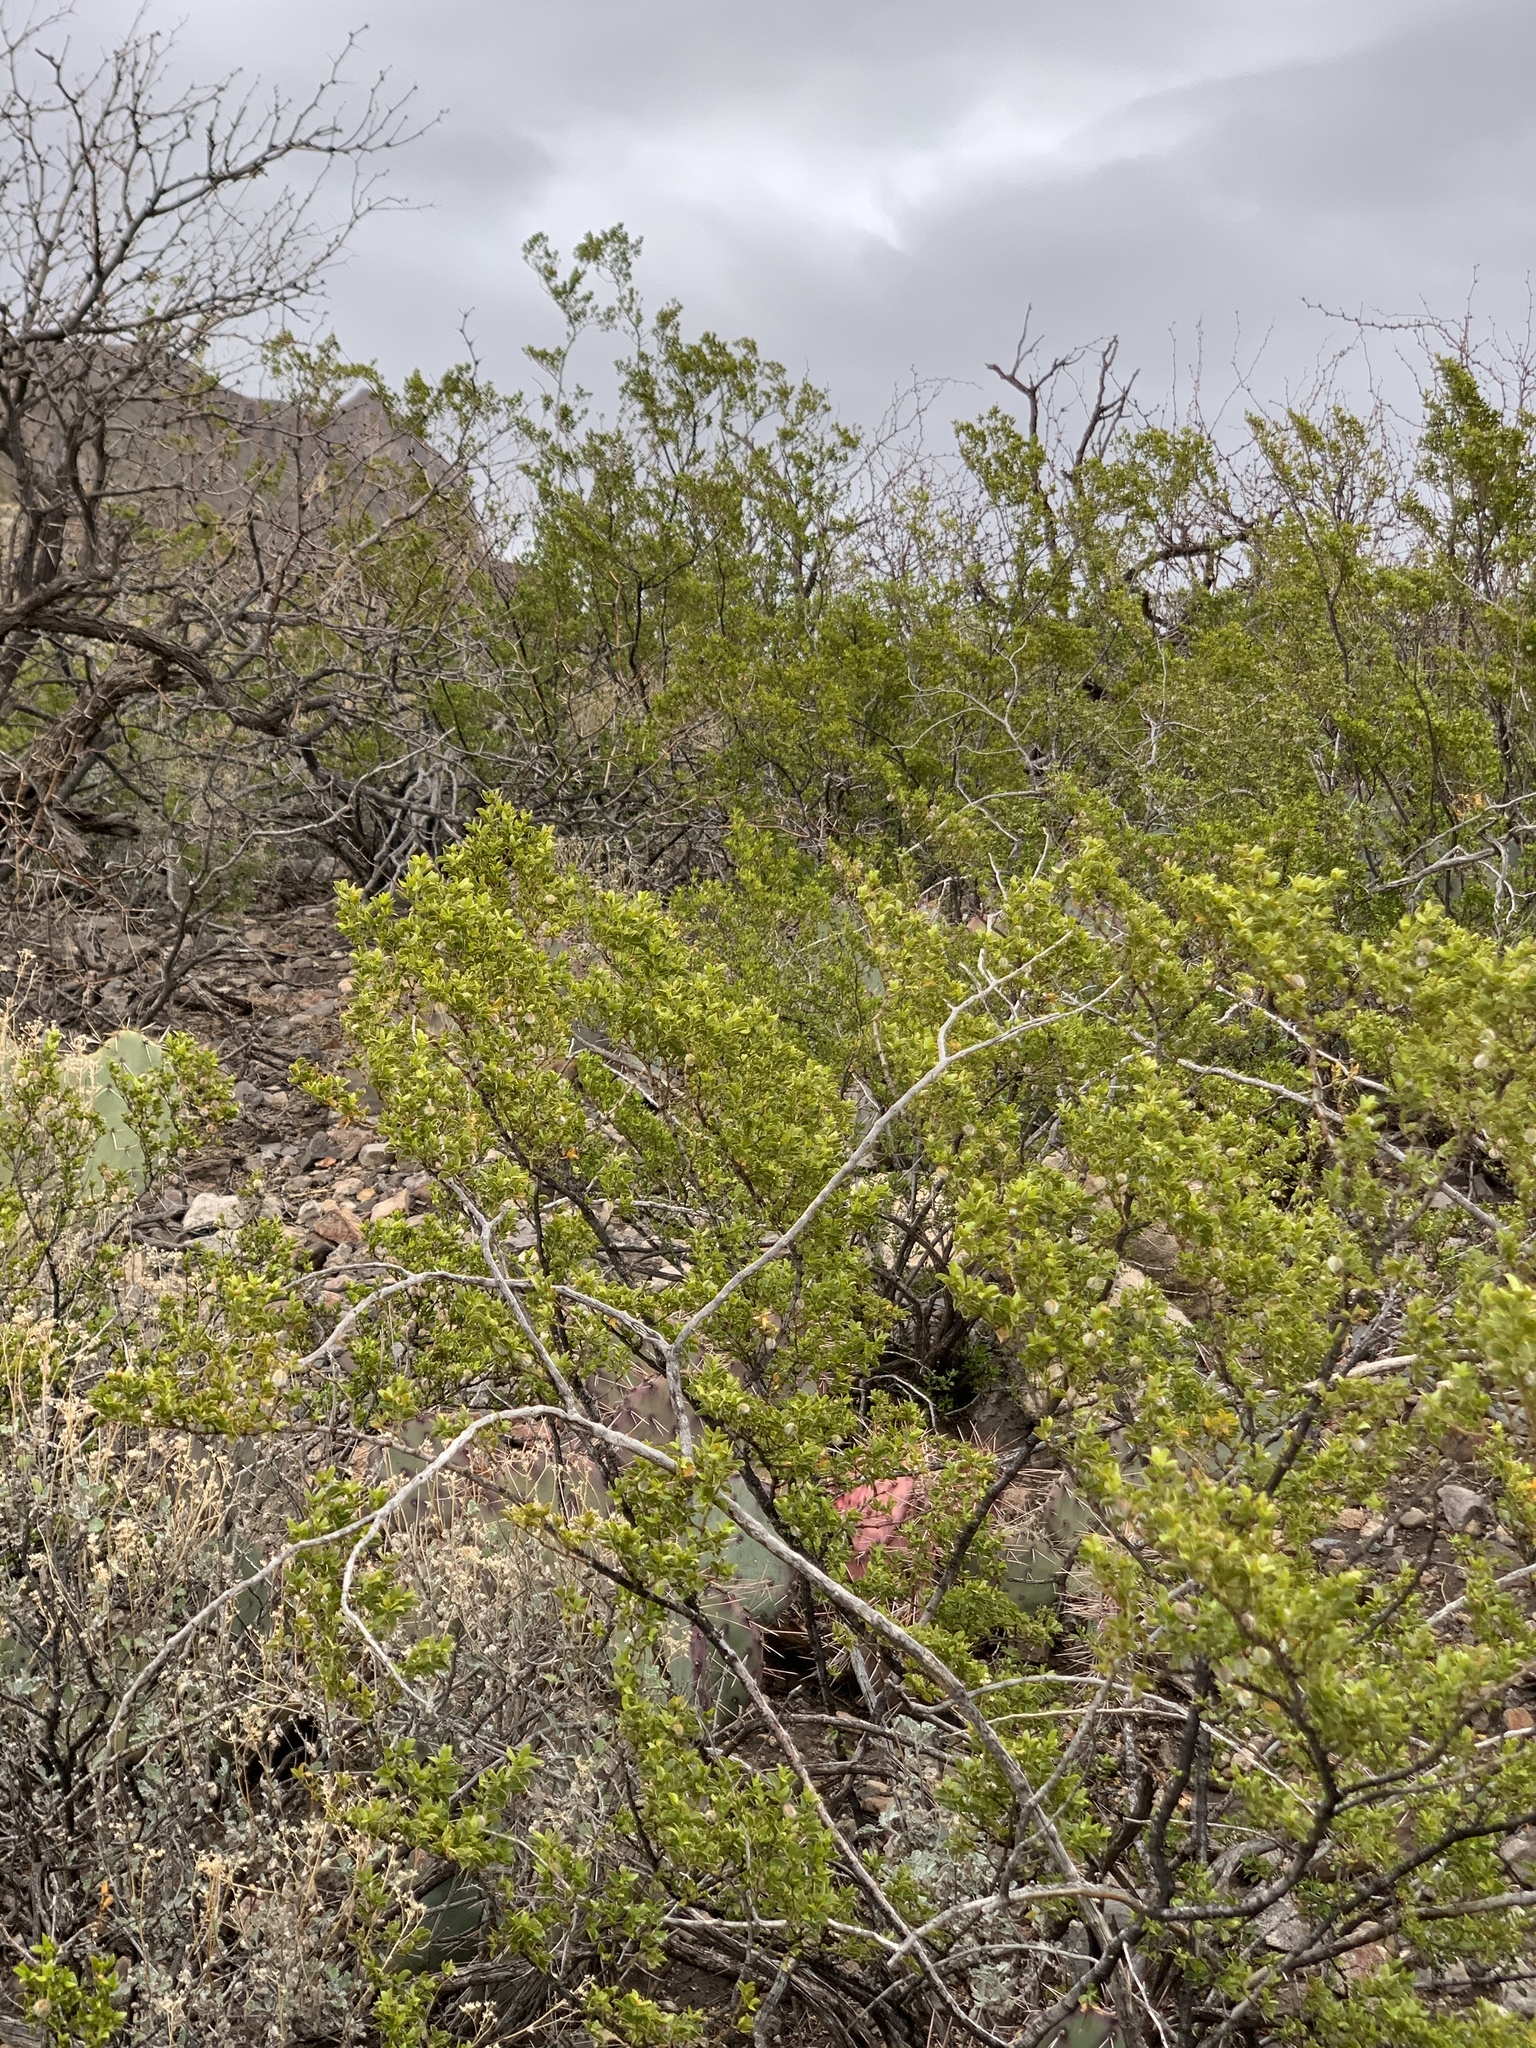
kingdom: Plantae
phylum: Tracheophyta
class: Magnoliopsida
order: Zygophyllales
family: Zygophyllaceae
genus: Larrea
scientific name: Larrea tridentata
